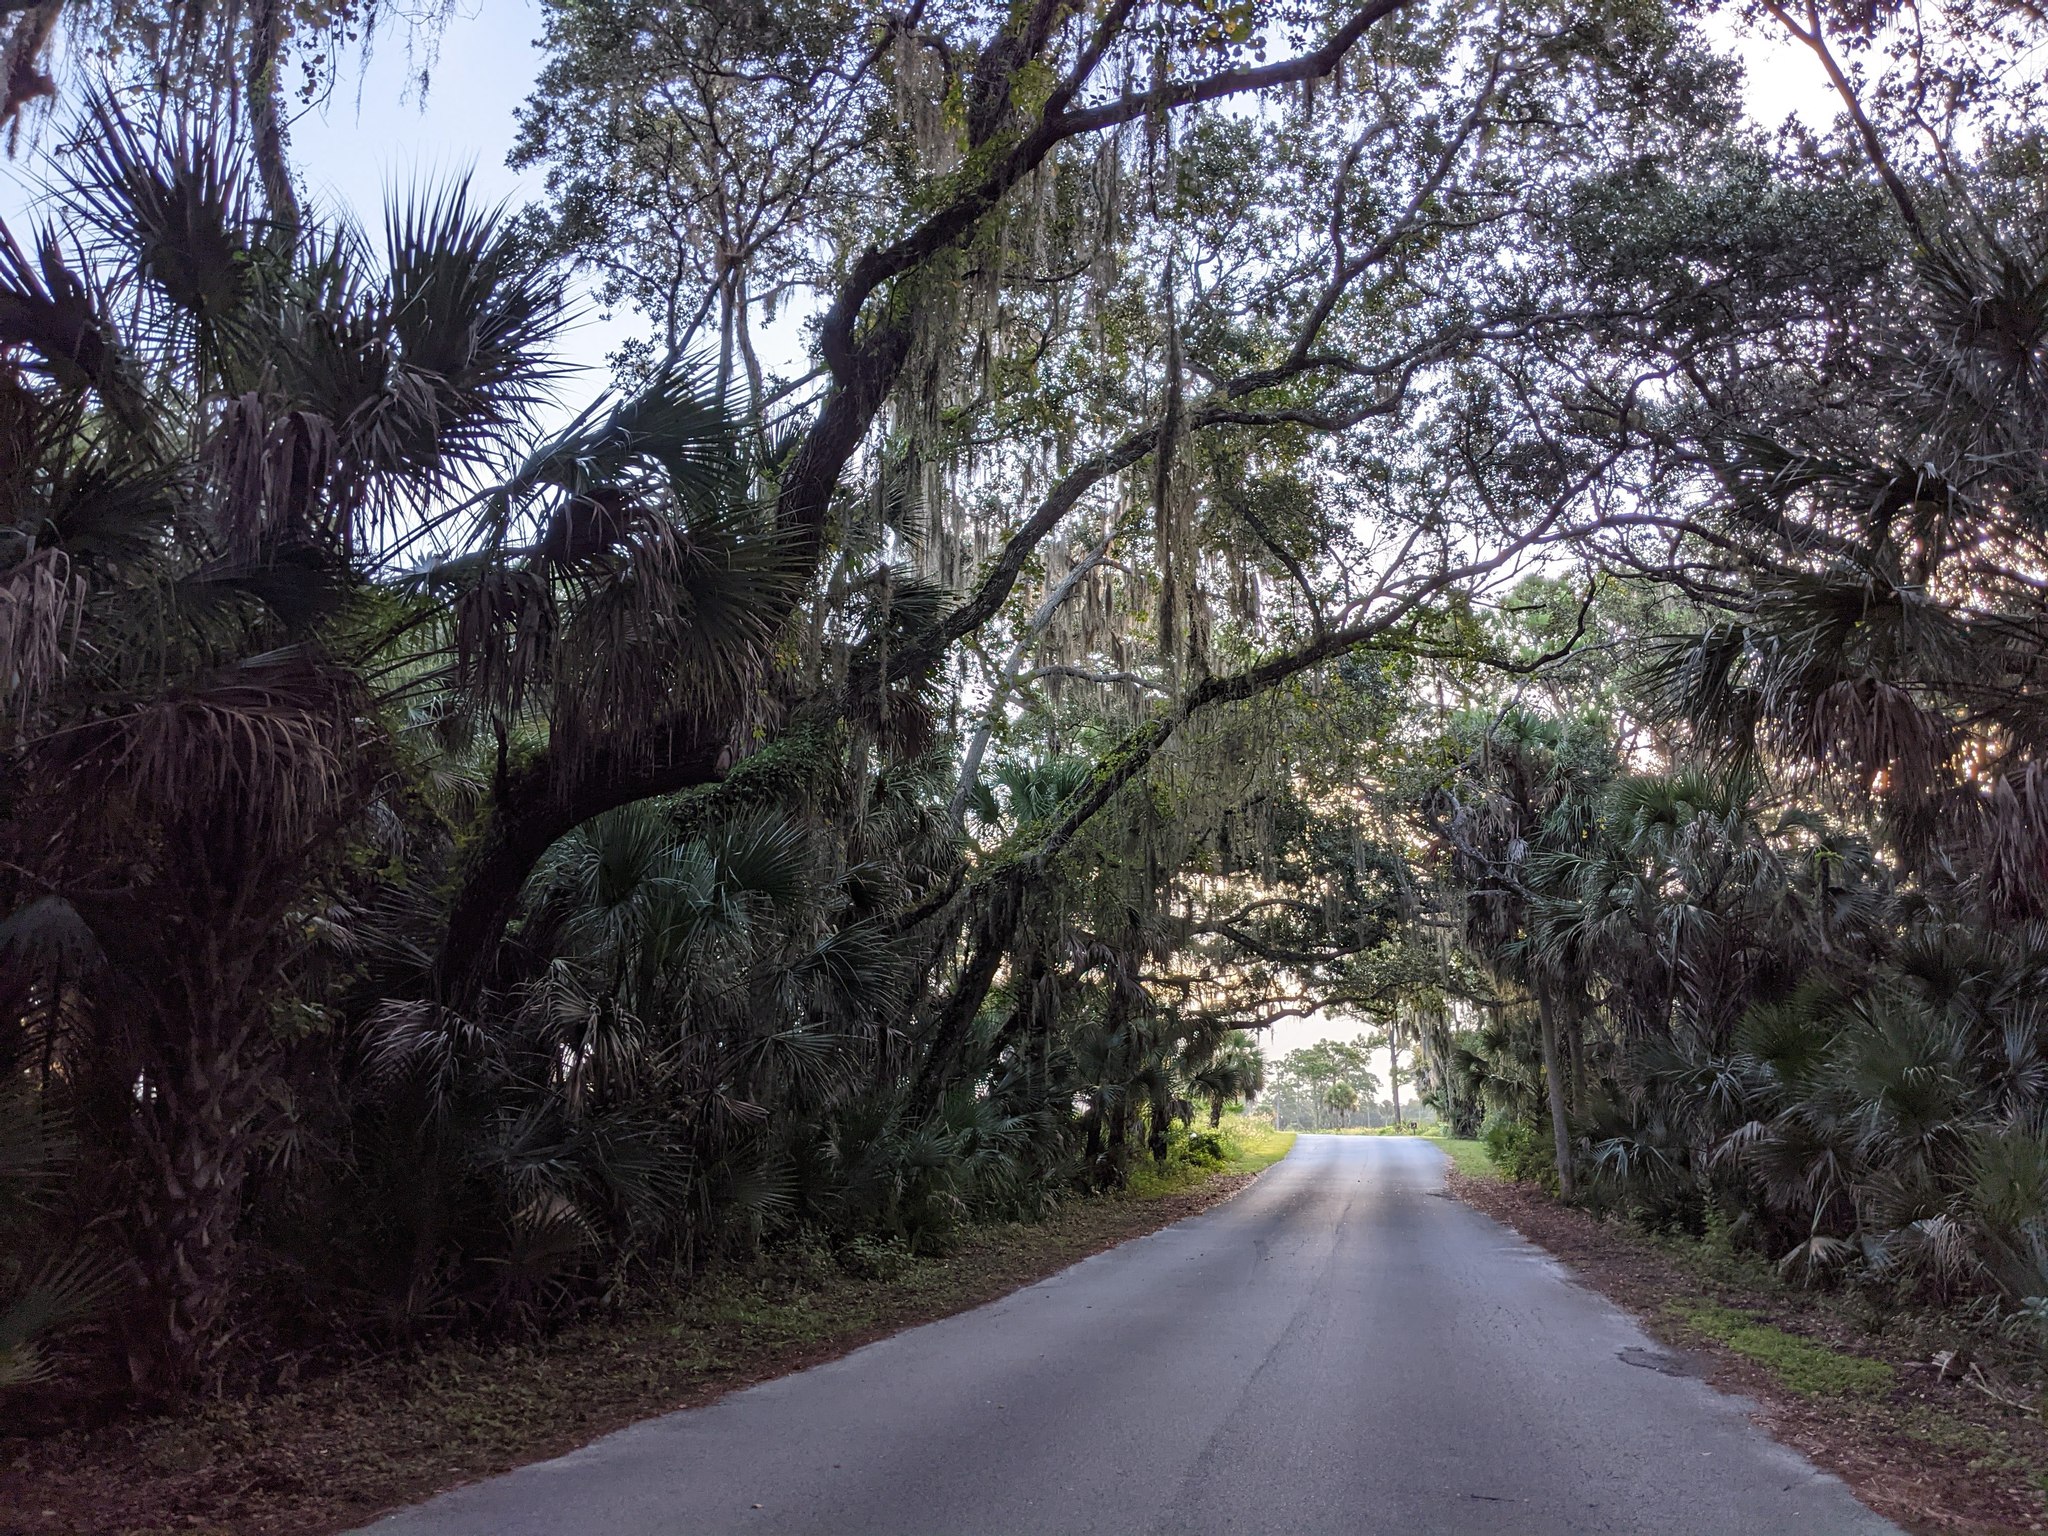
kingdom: Plantae
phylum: Tracheophyta
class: Magnoliopsida
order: Fagales
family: Fagaceae
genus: Quercus
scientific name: Quercus virginiana
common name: Southern live oak
